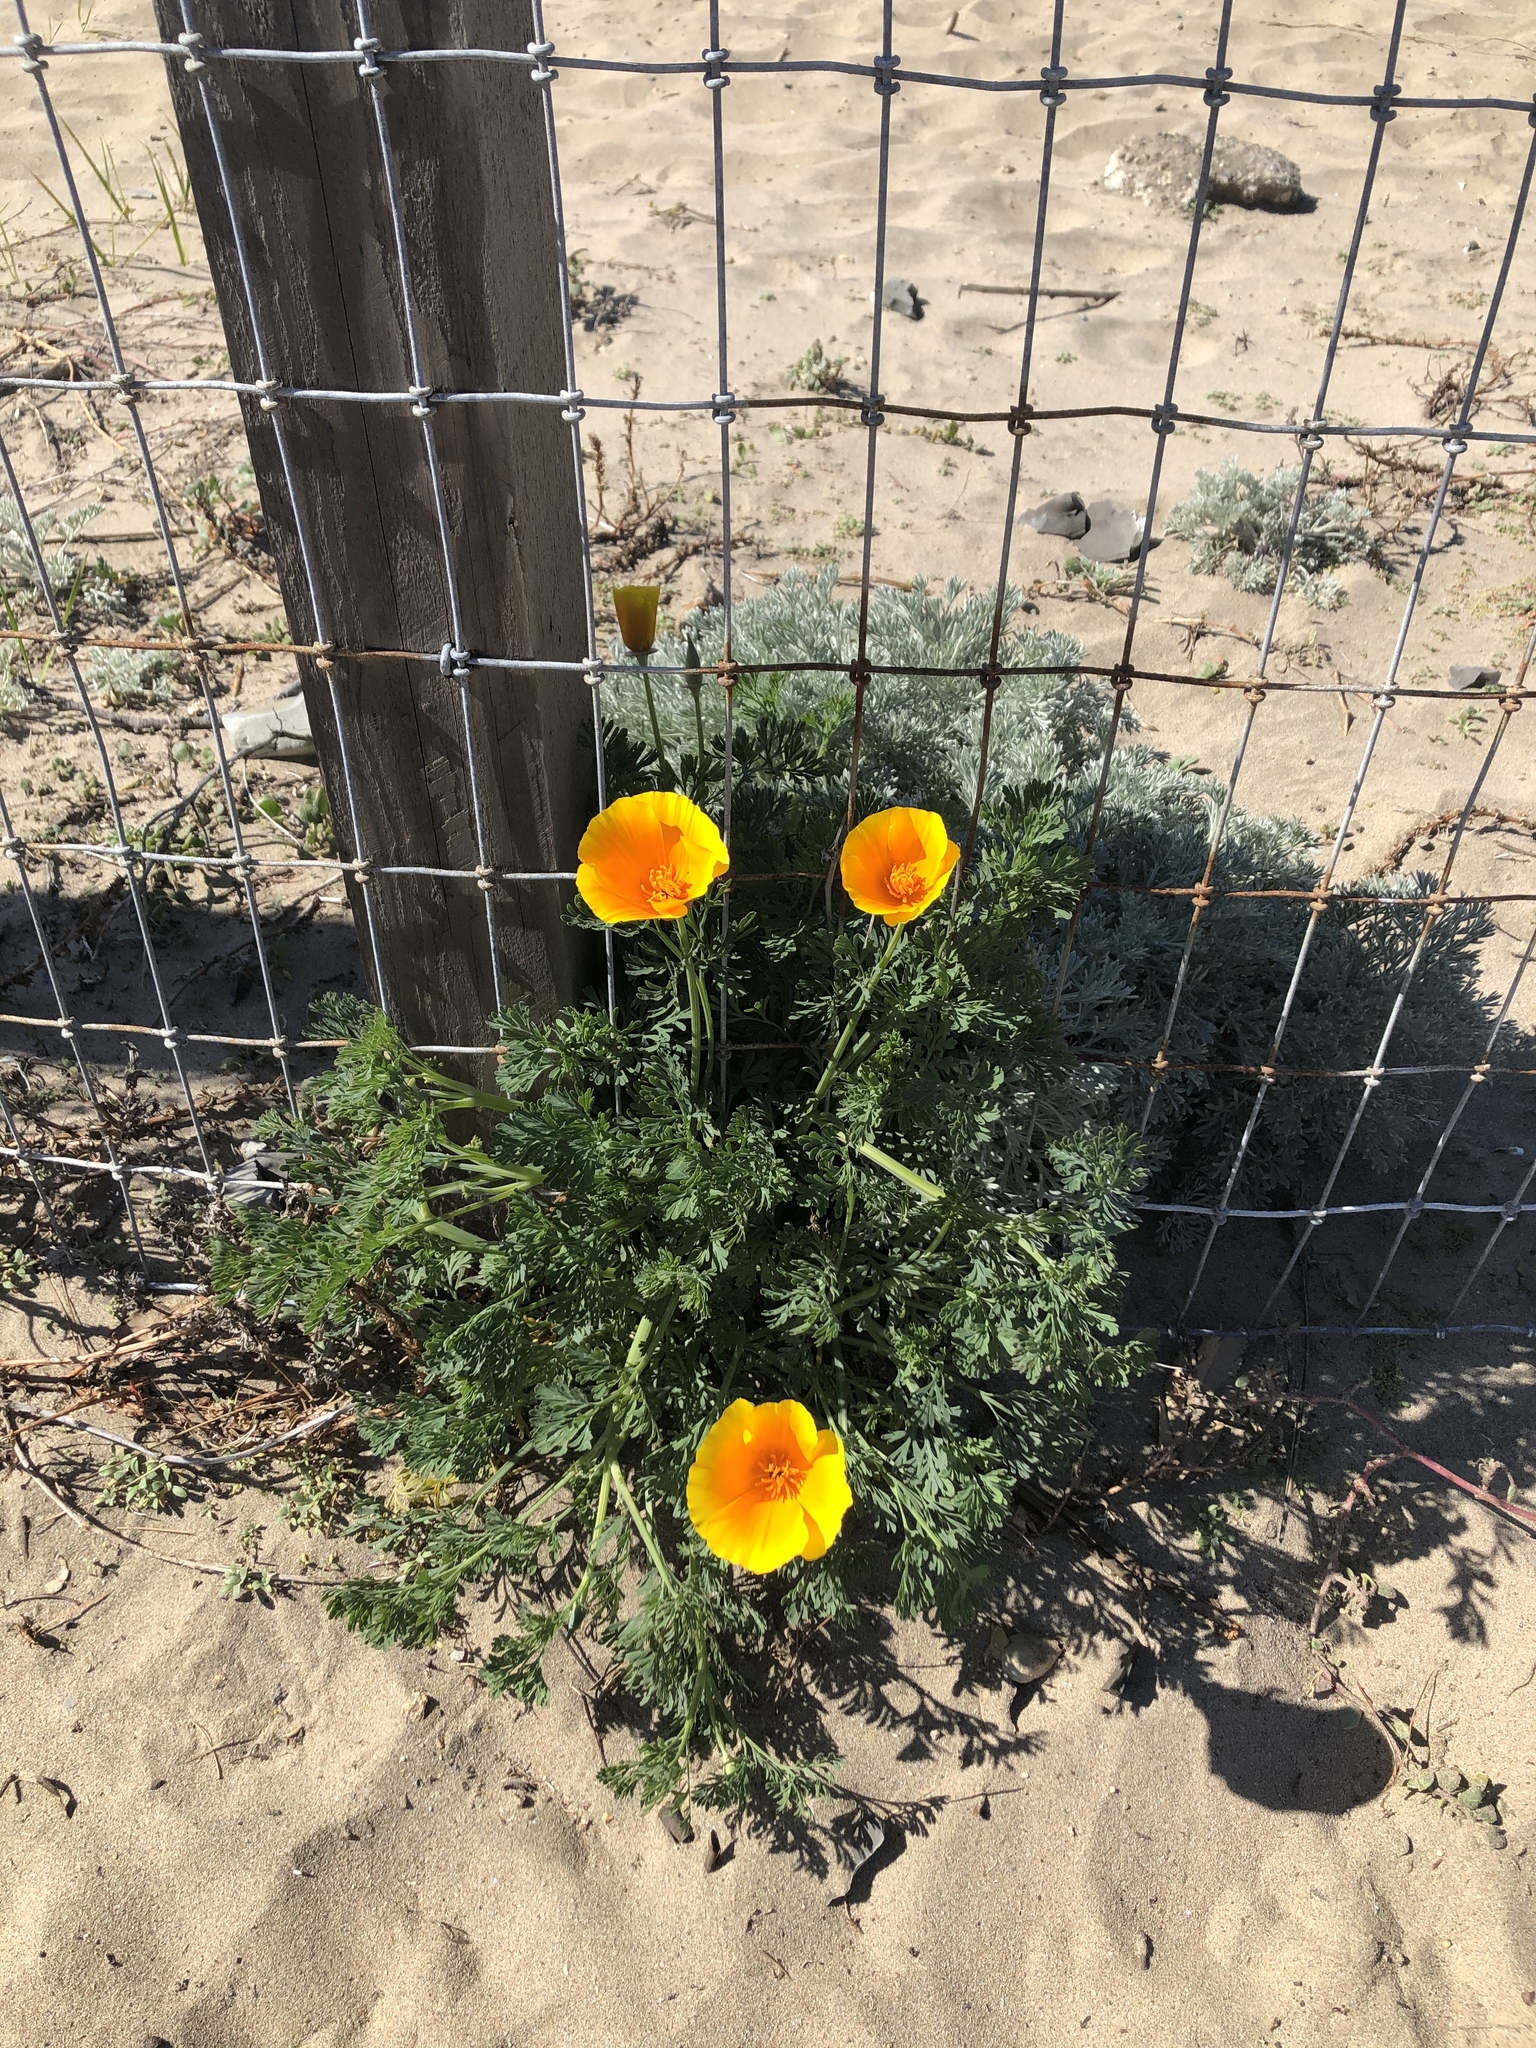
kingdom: Plantae
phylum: Tracheophyta
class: Magnoliopsida
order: Ranunculales
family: Papaveraceae
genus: Eschscholzia
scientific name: Eschscholzia californica
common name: California poppy
